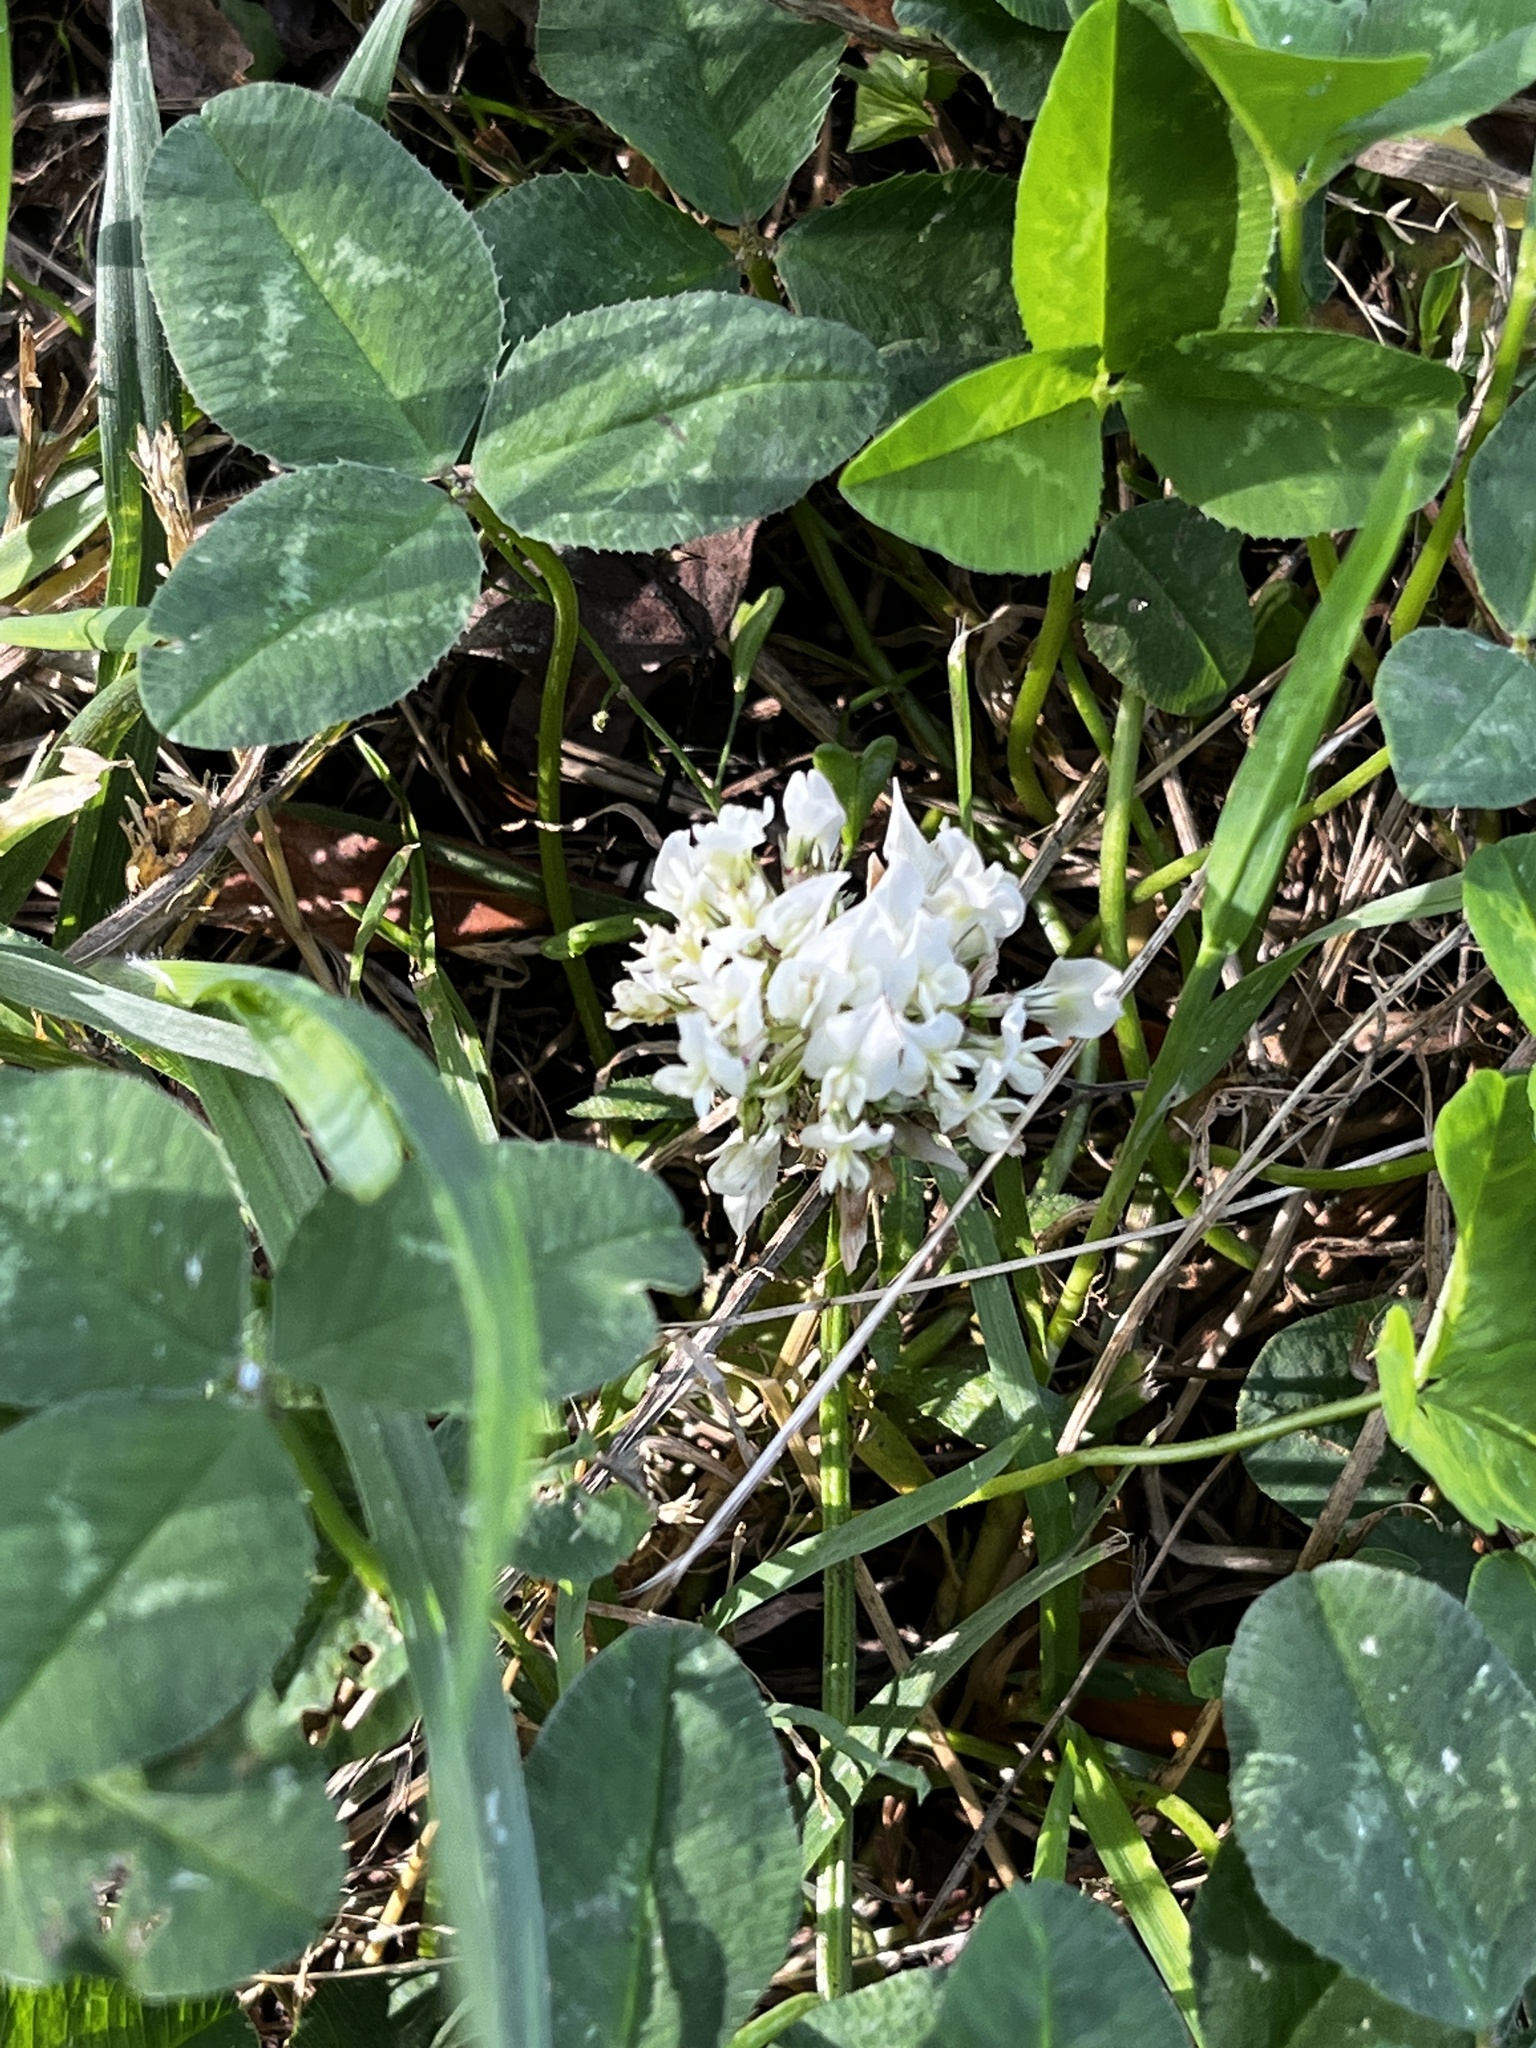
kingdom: Plantae
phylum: Tracheophyta
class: Magnoliopsida
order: Fabales
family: Fabaceae
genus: Trifolium
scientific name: Trifolium repens
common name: White clover
